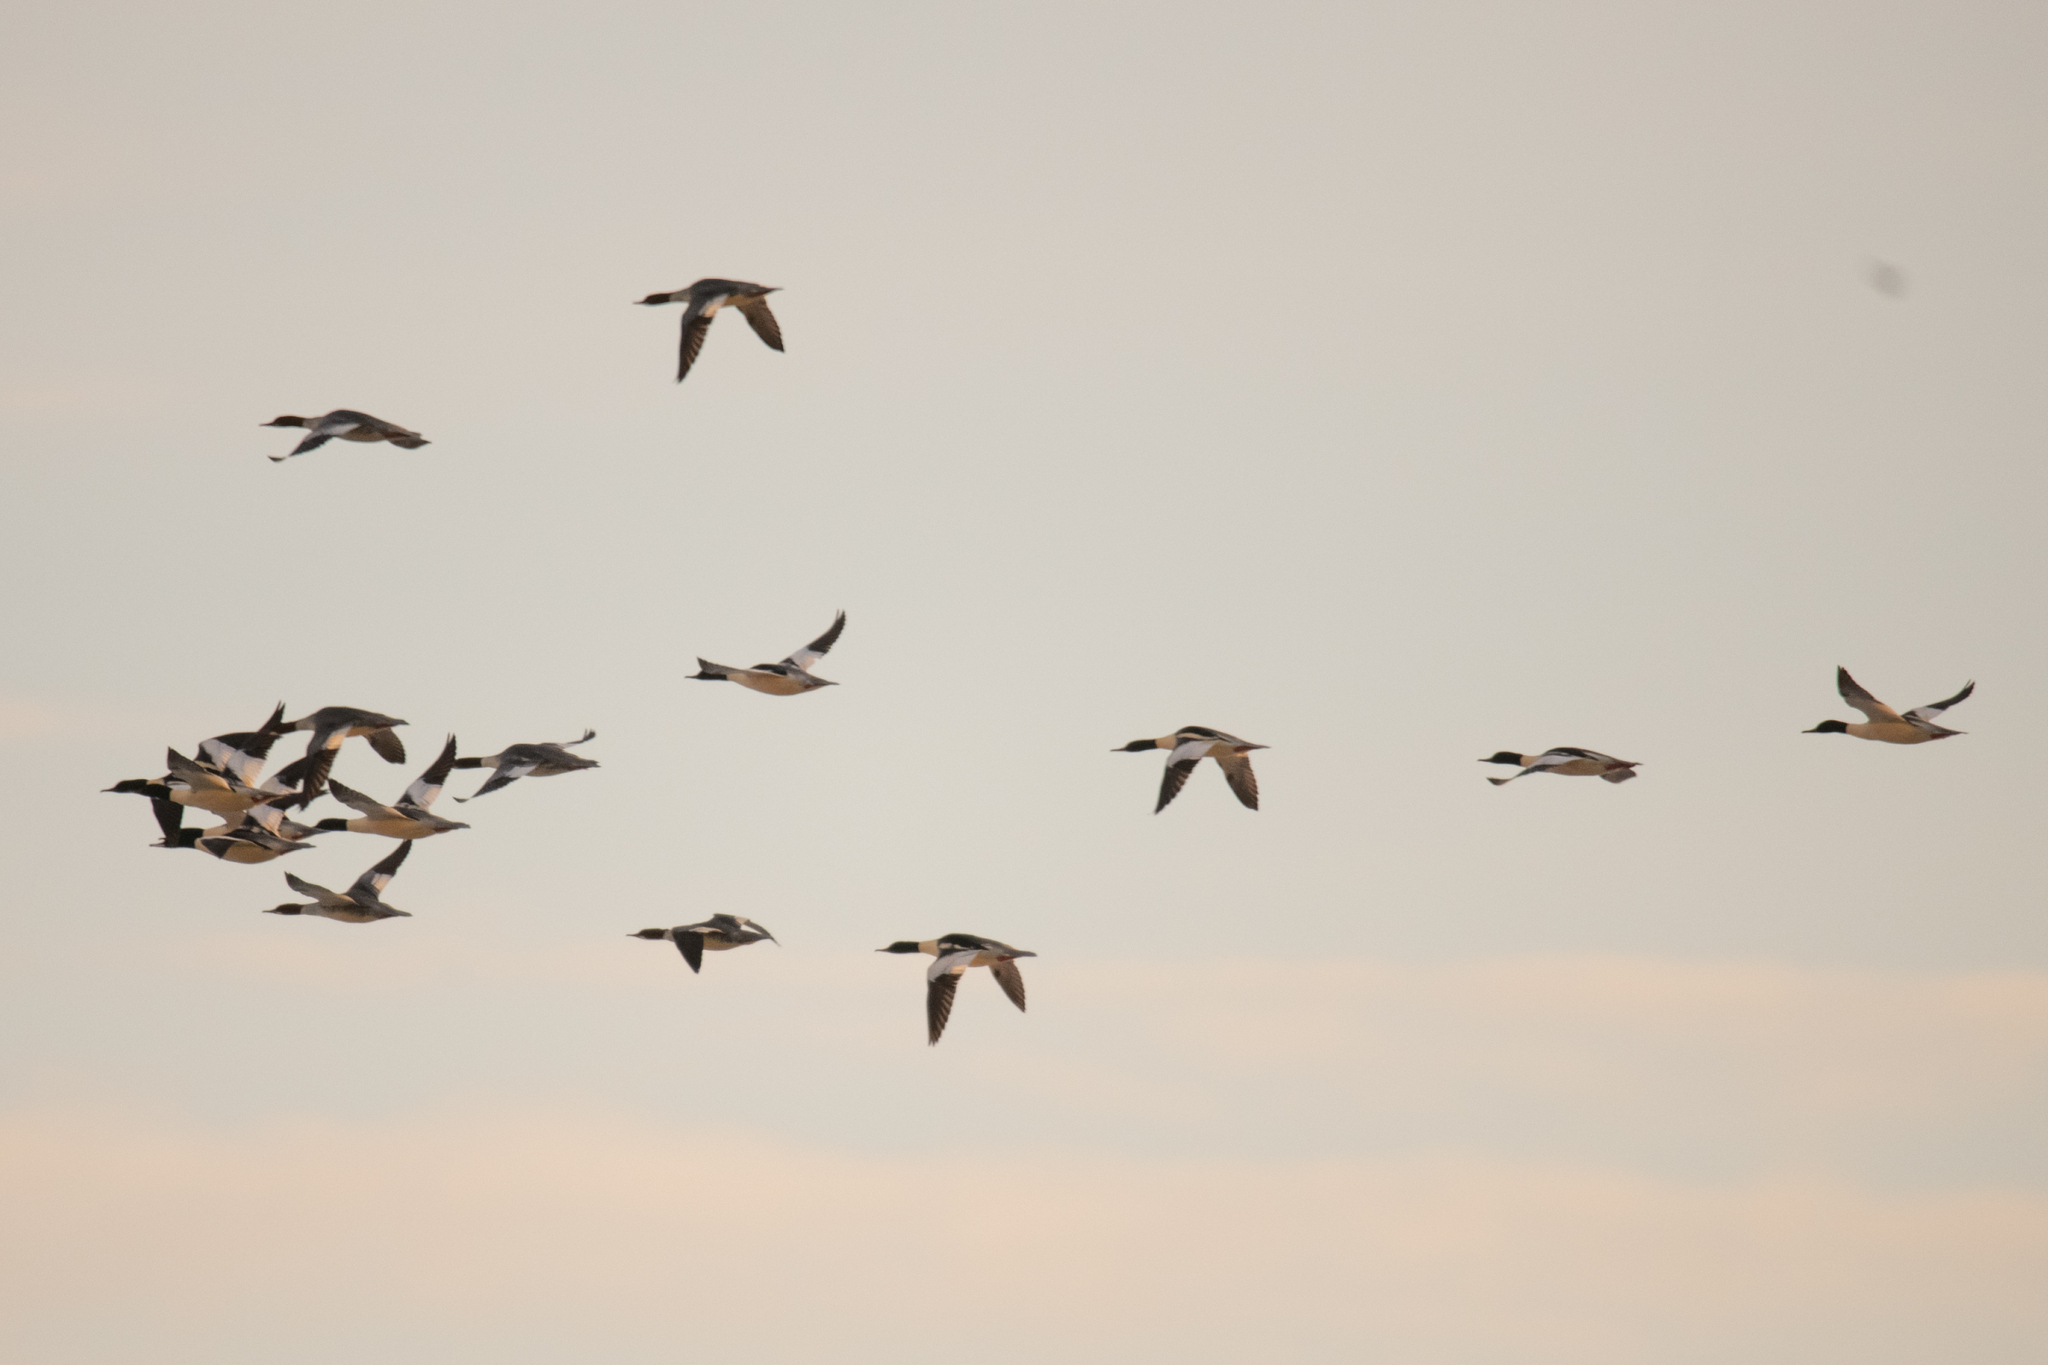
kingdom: Animalia
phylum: Chordata
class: Aves
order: Anseriformes
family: Anatidae
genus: Mergus
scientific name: Mergus merganser
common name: Common merganser
